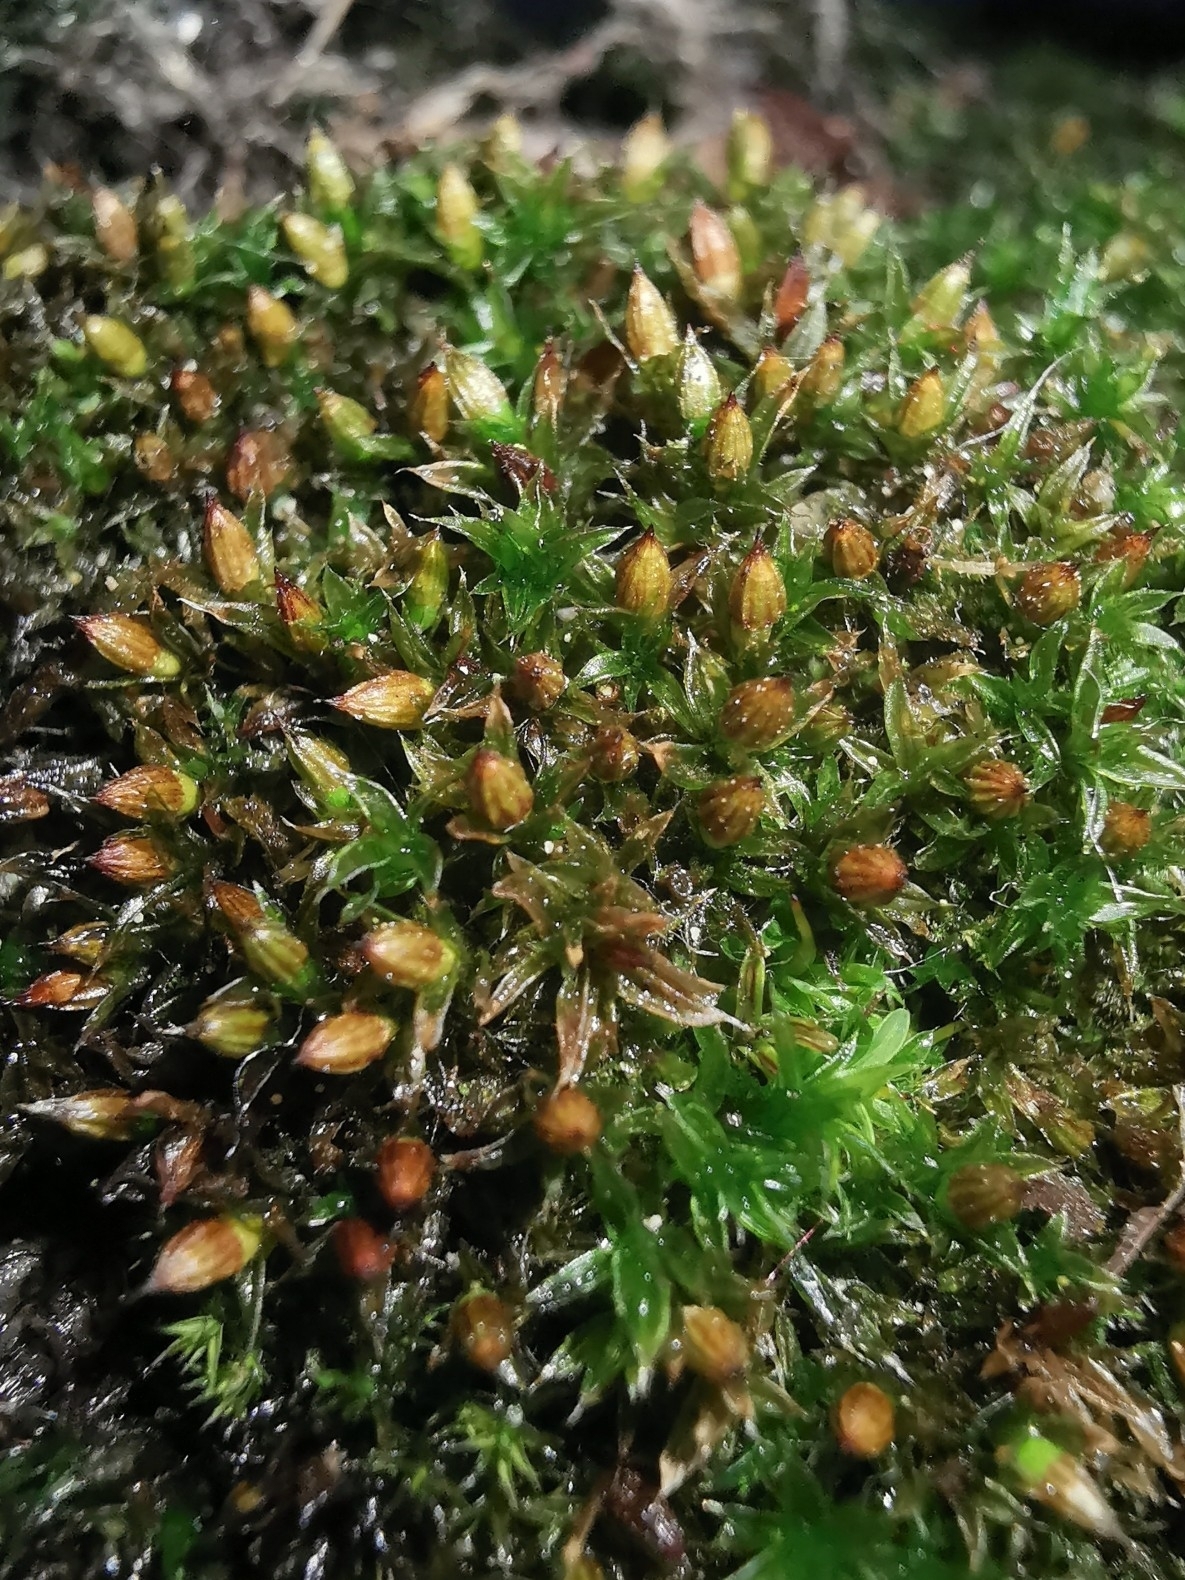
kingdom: Plantae
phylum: Bryophyta
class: Bryopsida
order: Orthotrichales
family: Orthotrichaceae
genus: Orthotrichum
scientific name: Orthotrichum diaphanum
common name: White-tipped bristle-moss
